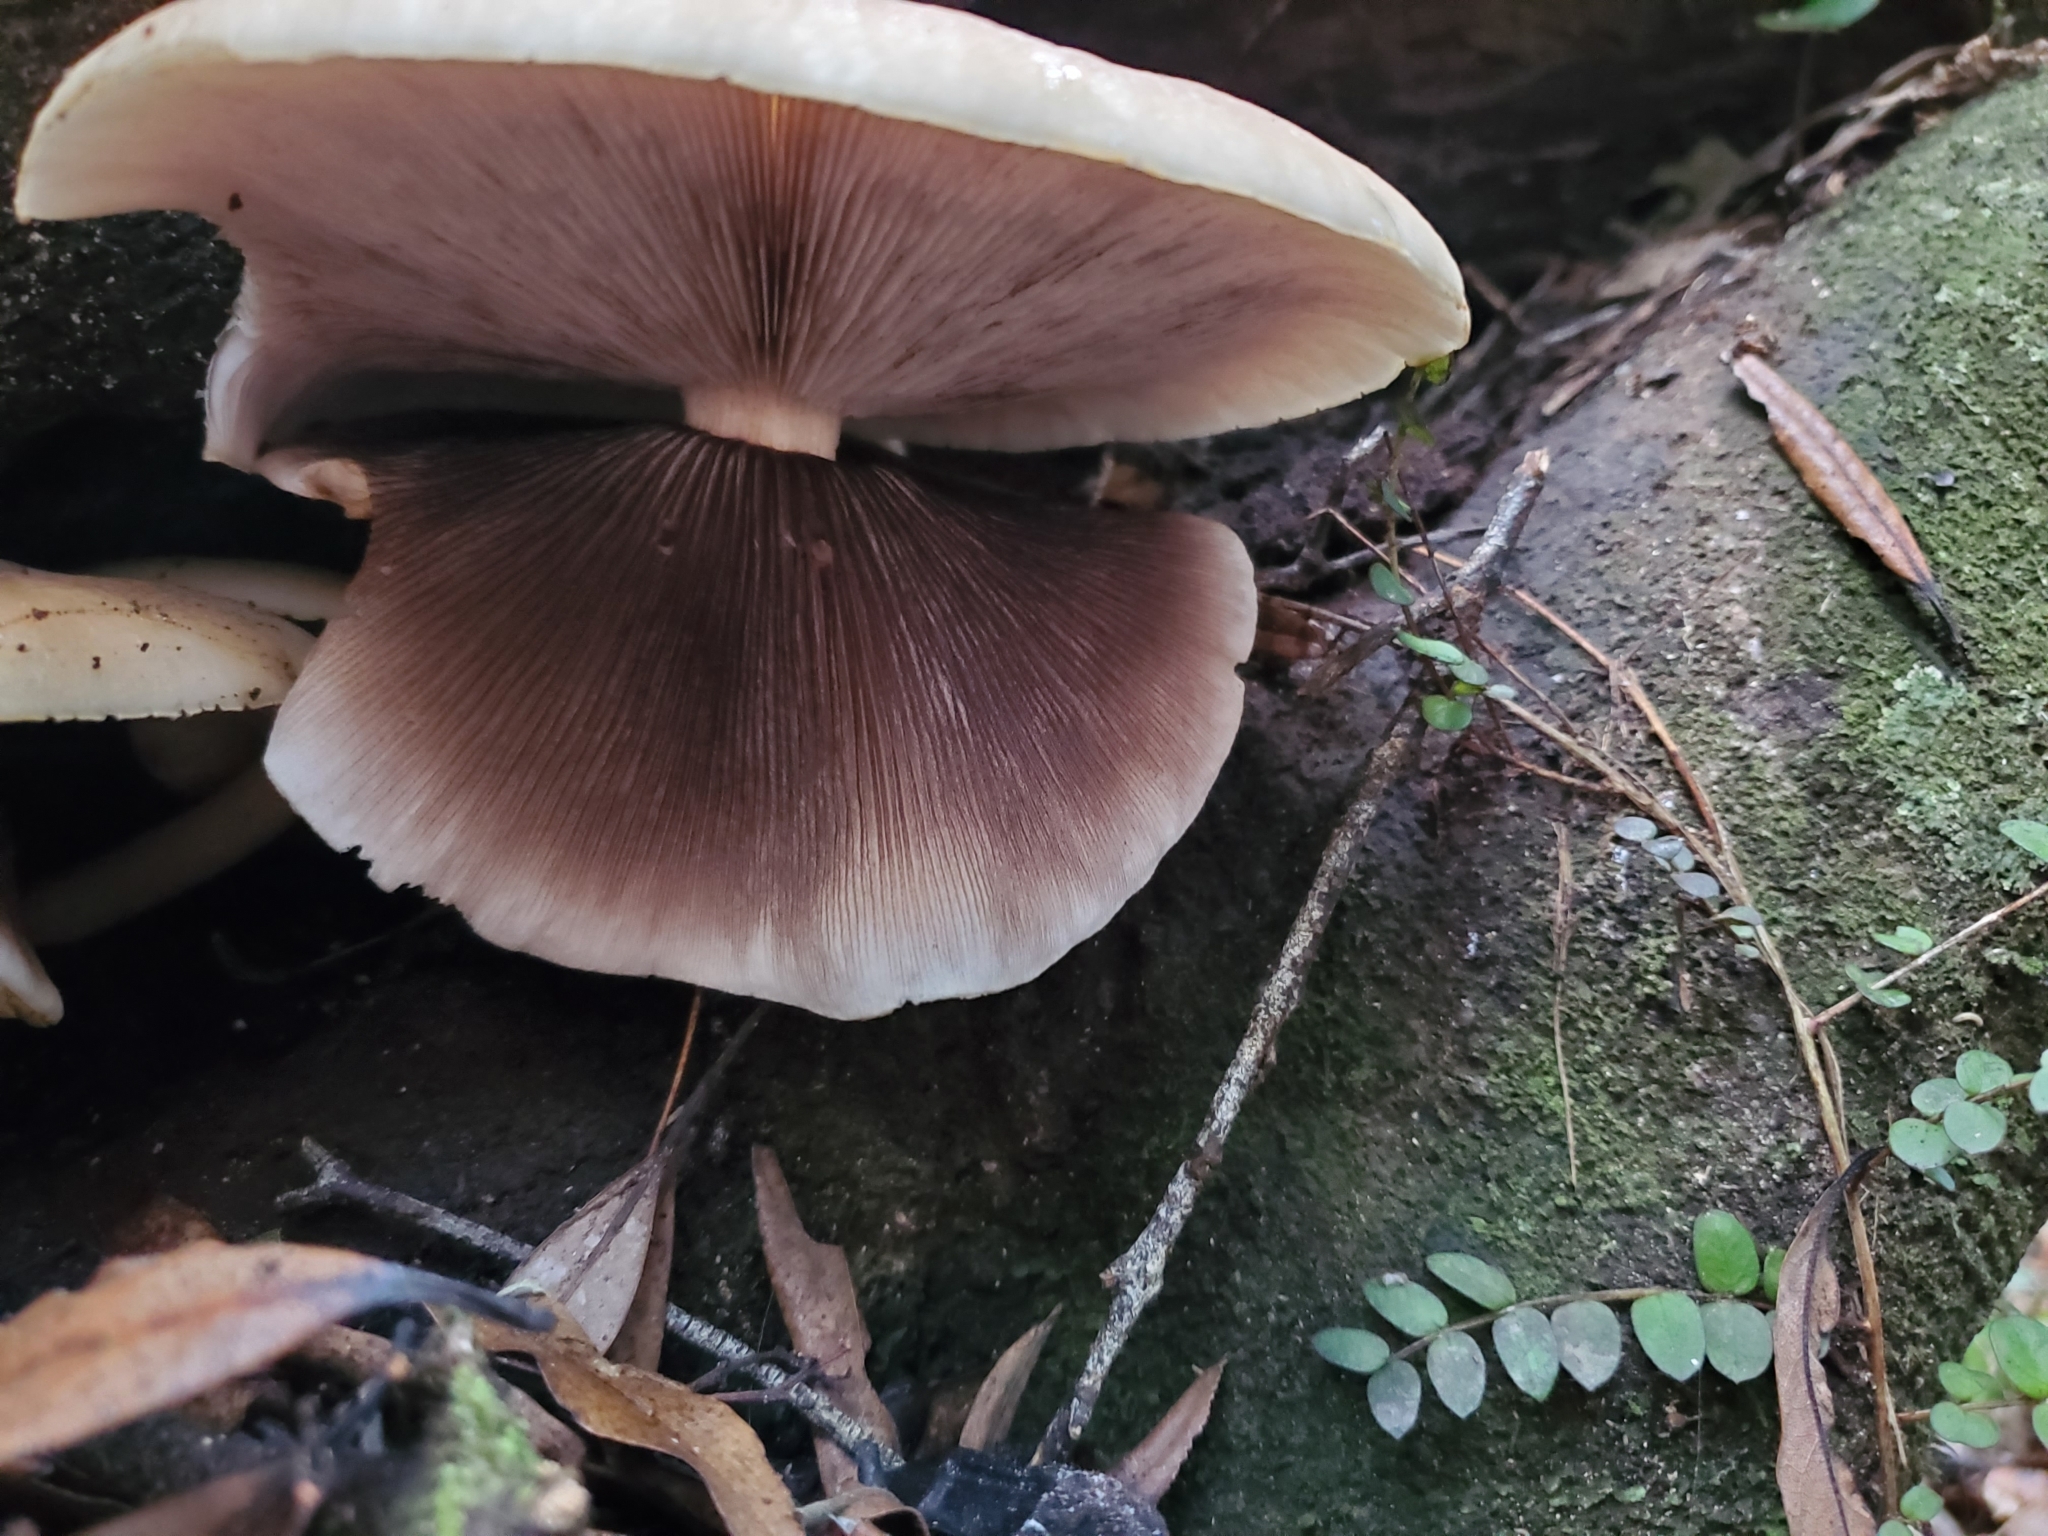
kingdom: Fungi
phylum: Basidiomycota
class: Agaricomycetes
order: Agaricales
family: Tubariaceae
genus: Cyclocybe
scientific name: Cyclocybe parasitica
